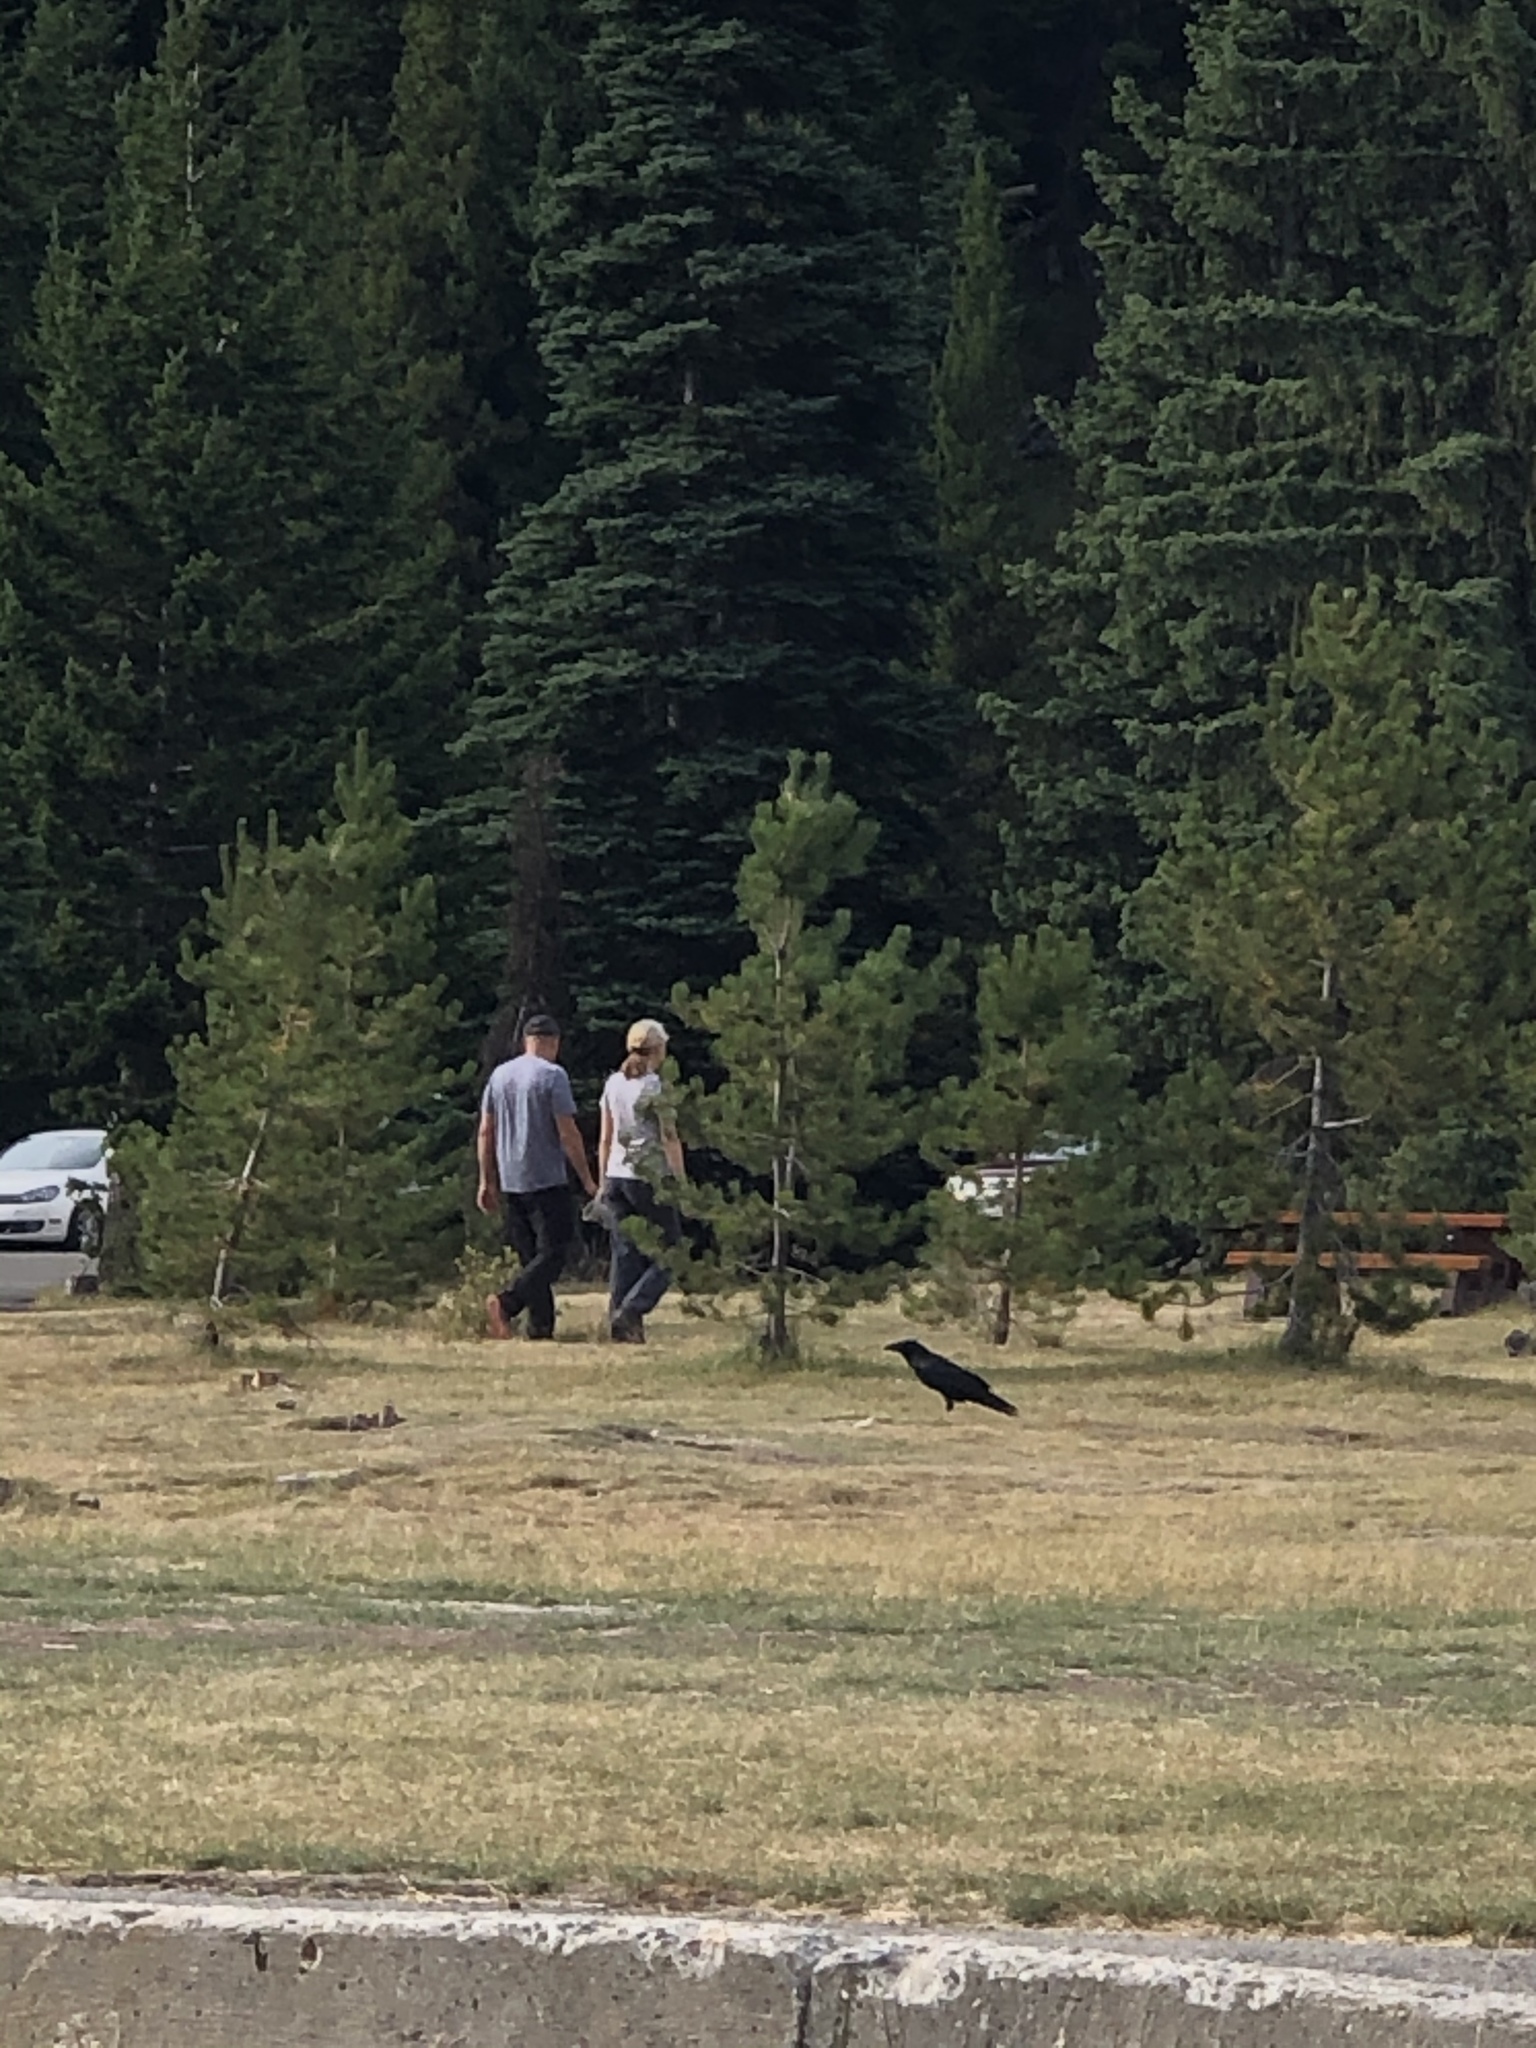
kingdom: Animalia
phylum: Chordata
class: Aves
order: Passeriformes
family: Corvidae
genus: Corvus
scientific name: Corvus corax
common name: Common raven
